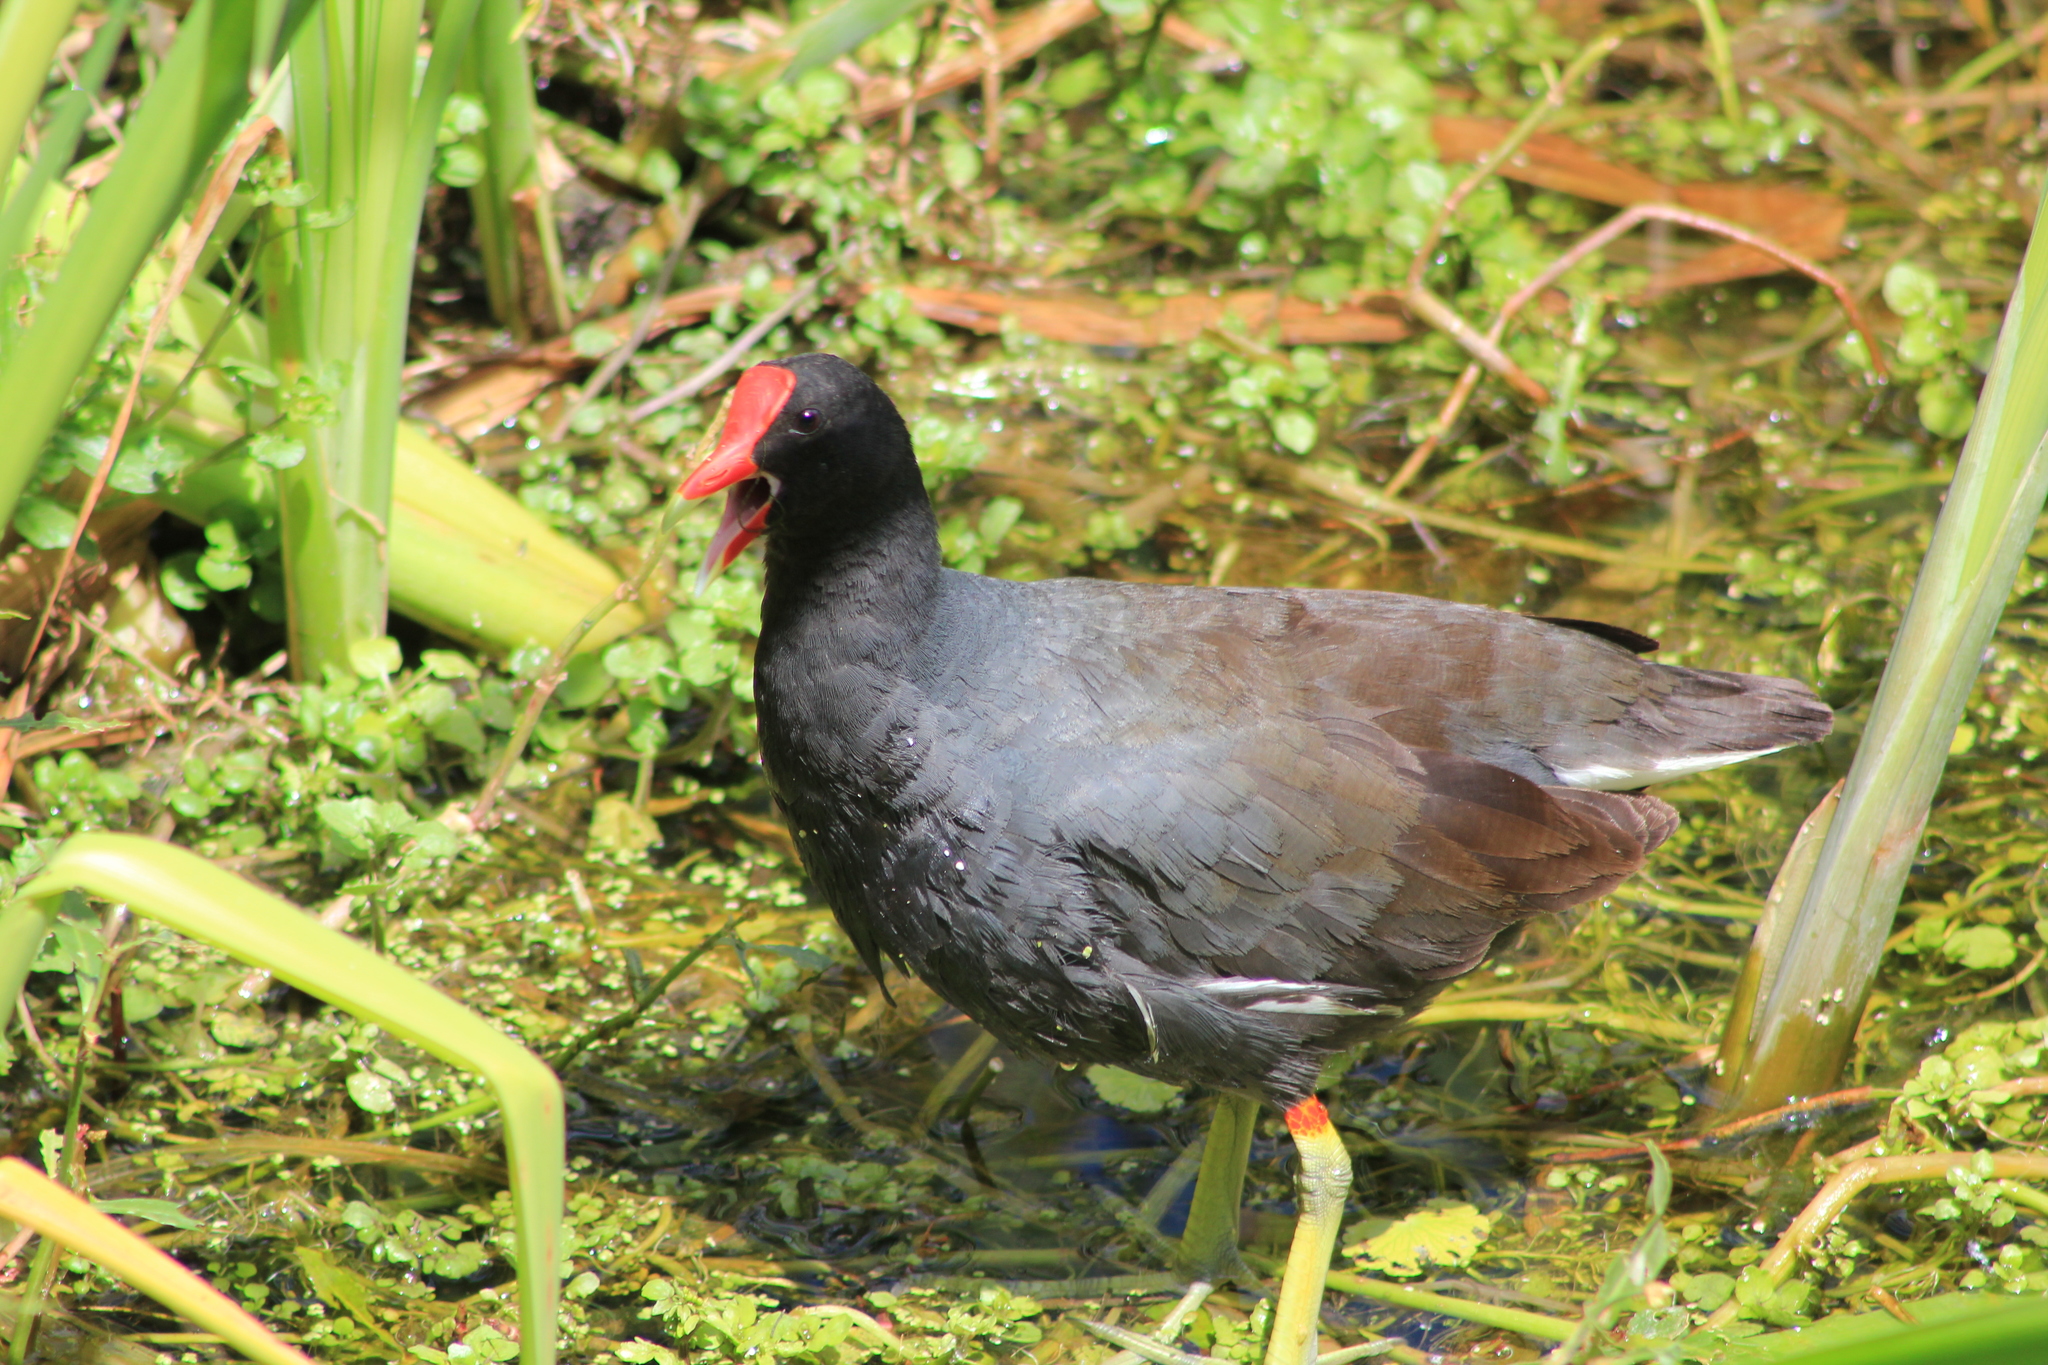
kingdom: Animalia
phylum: Chordata
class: Aves
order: Gruiformes
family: Rallidae
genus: Gallinula
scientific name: Gallinula chloropus
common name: Common moorhen
